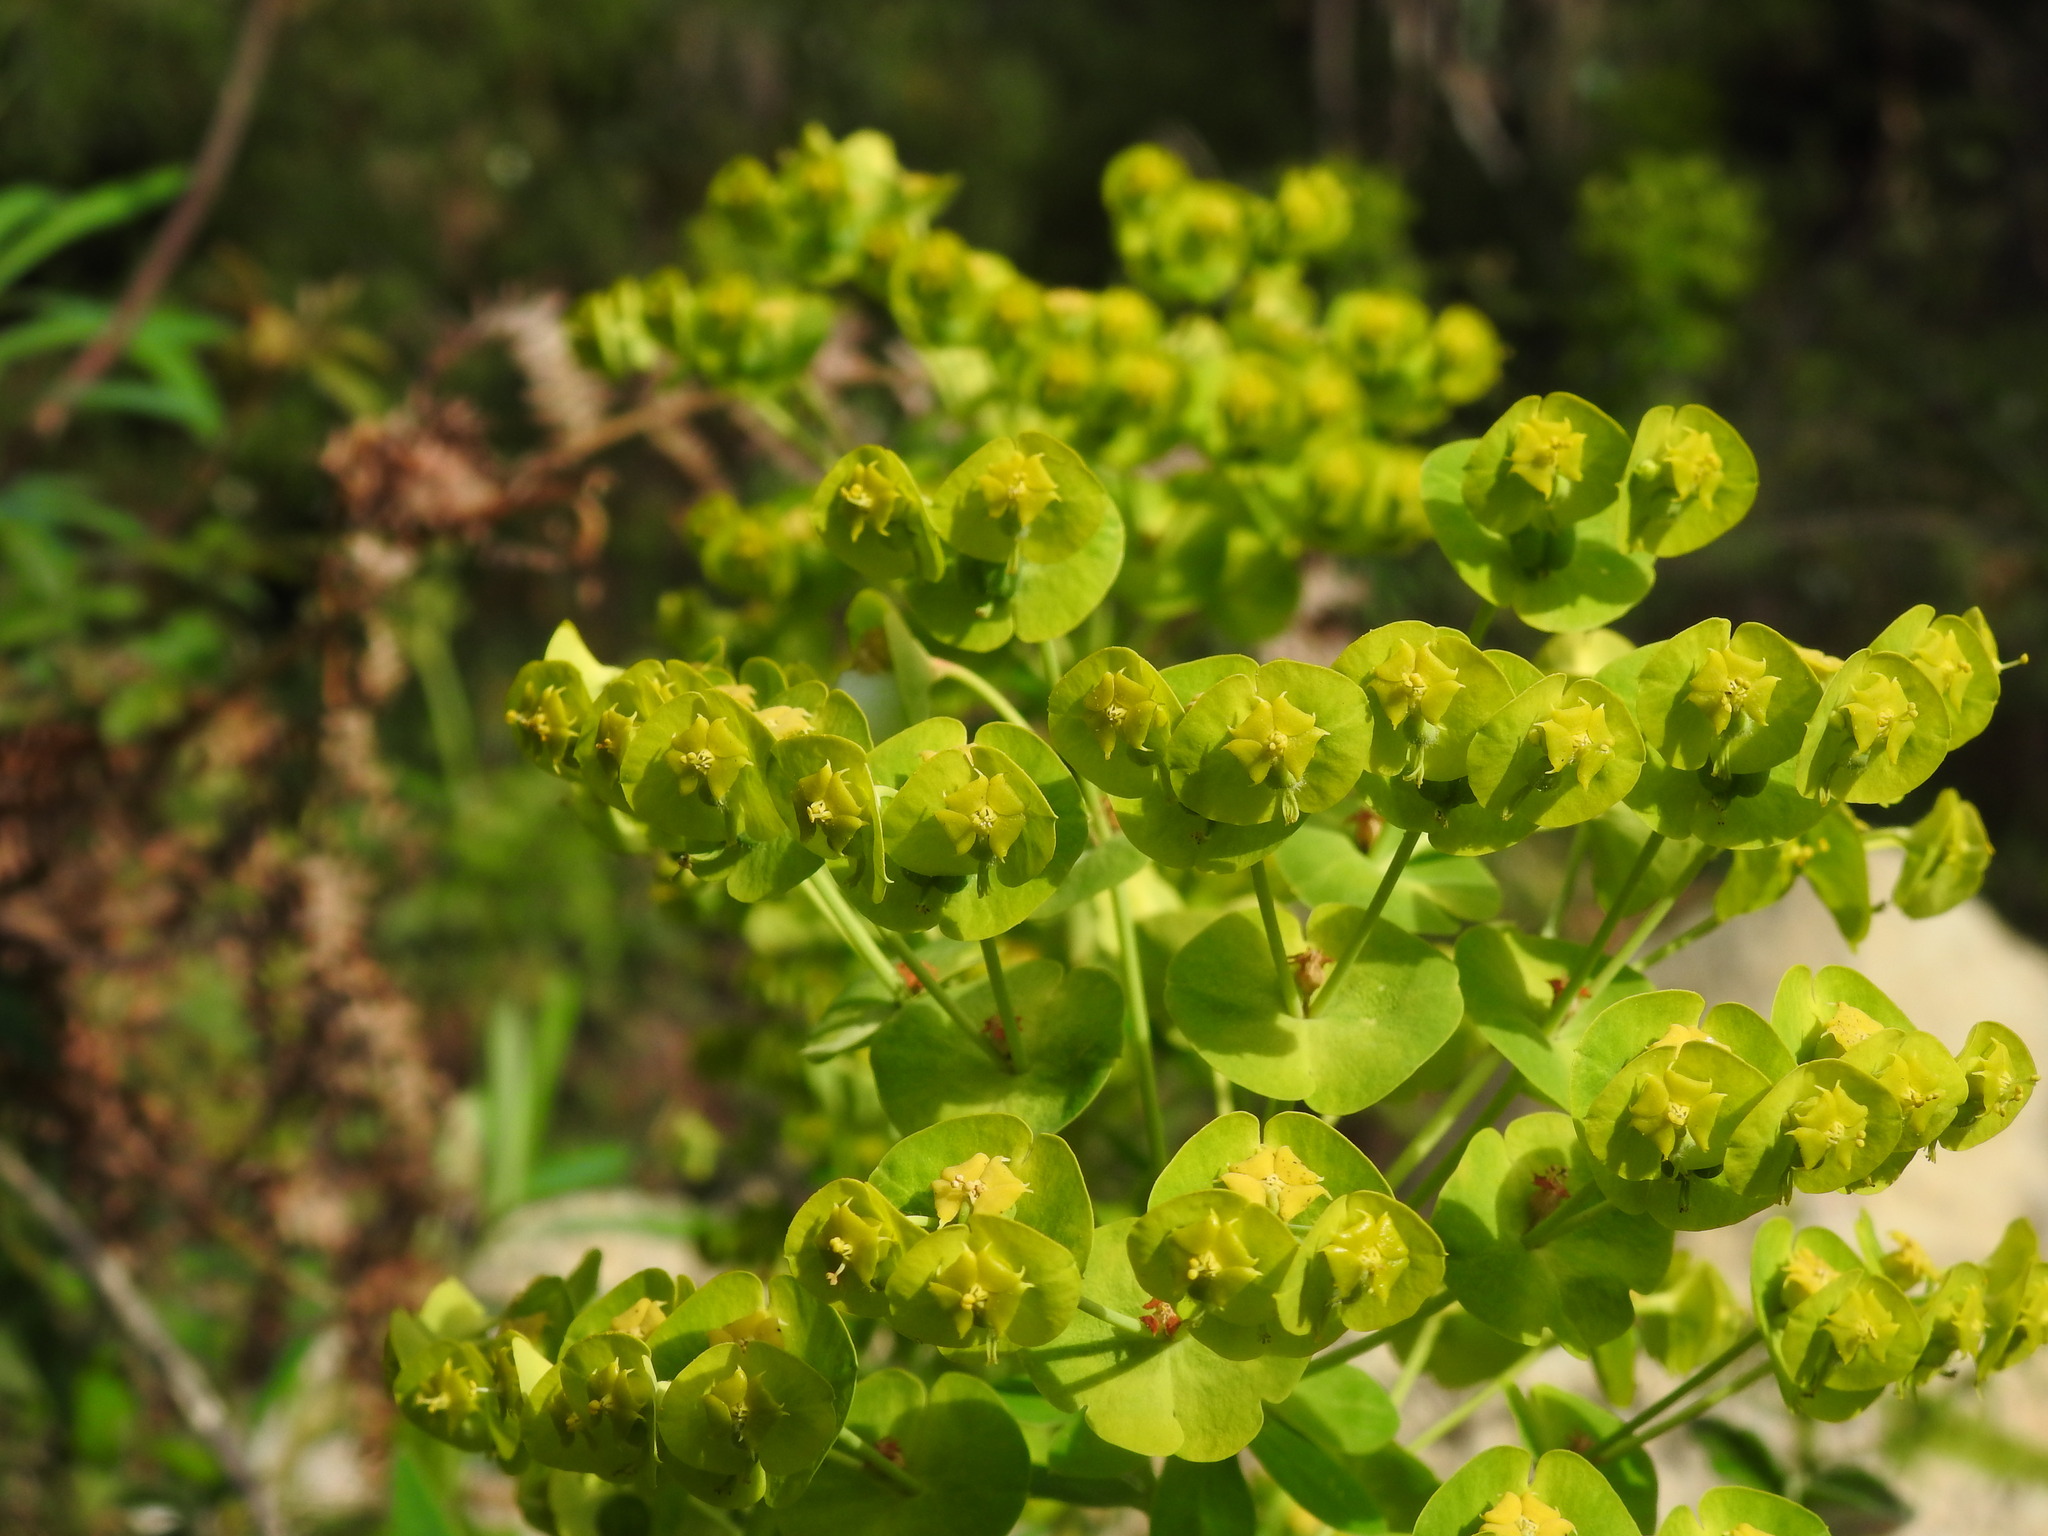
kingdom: Plantae
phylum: Tracheophyta
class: Magnoliopsida
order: Malpighiales
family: Euphorbiaceae
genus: Euphorbia
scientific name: Euphorbia characias
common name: Mediterranean spurge
